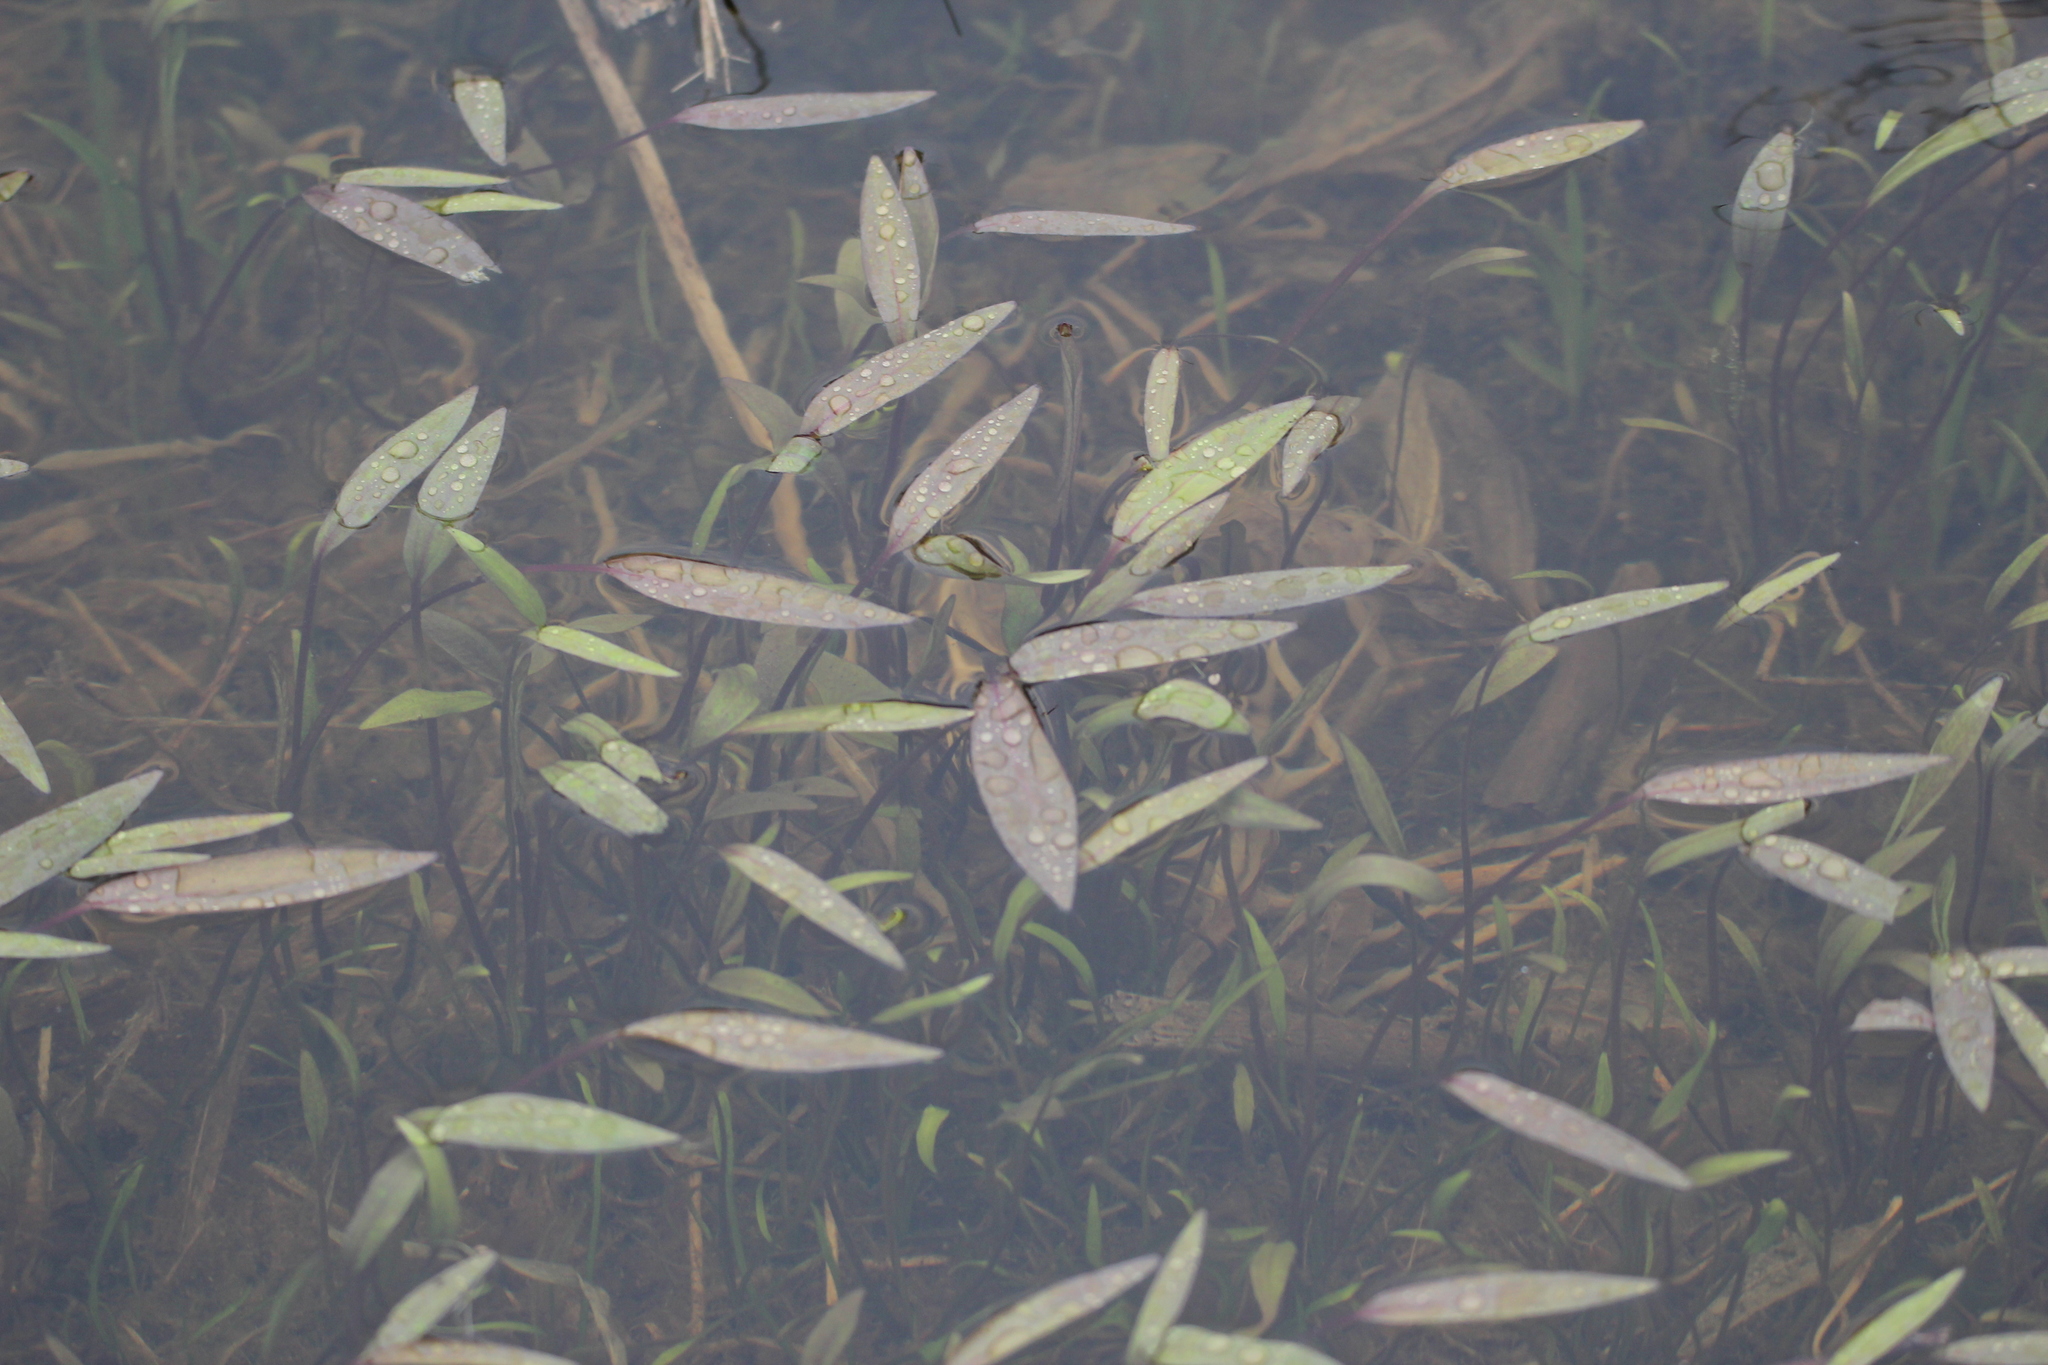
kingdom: Plantae
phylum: Tracheophyta
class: Magnoliopsida
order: Caryophyllales
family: Polygonaceae
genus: Persicaria
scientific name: Persicaria amphibia
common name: Amphibious bistort
